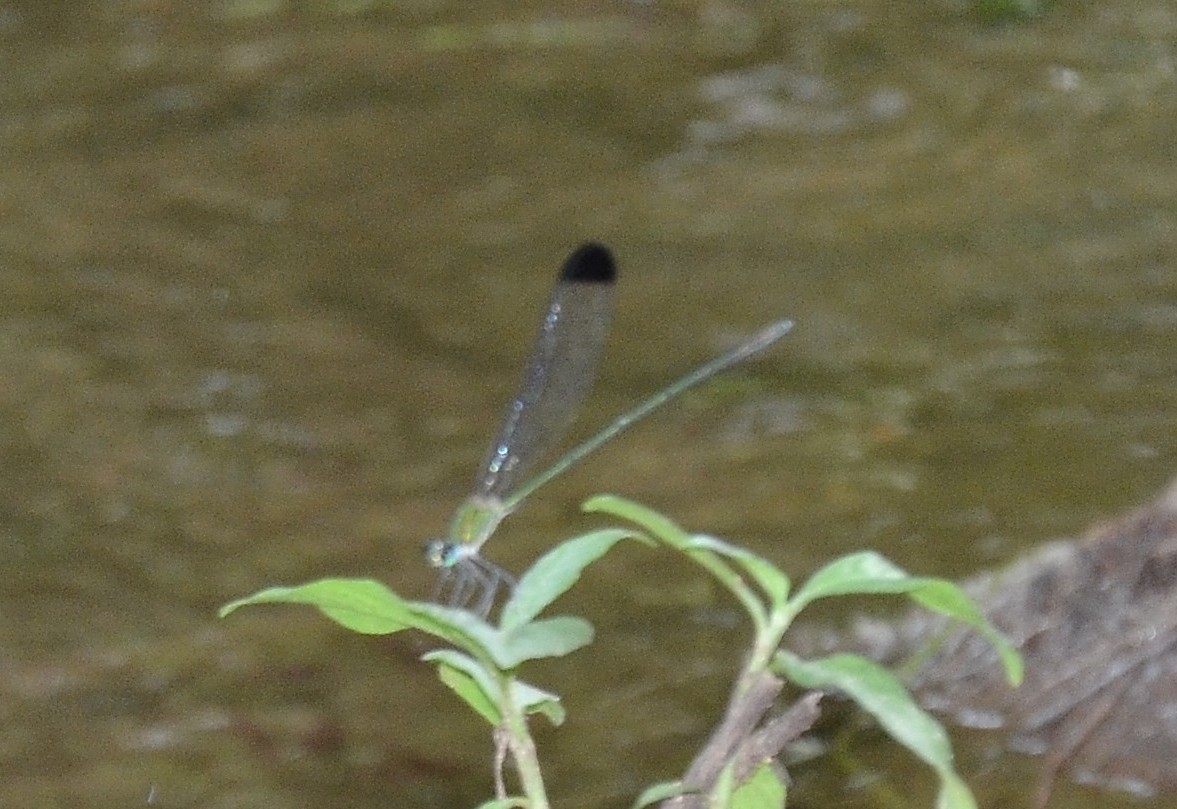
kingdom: Animalia
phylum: Arthropoda
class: Insecta
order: Odonata
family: Calopterygidae
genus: Vestalis
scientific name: Vestalis apicalis
